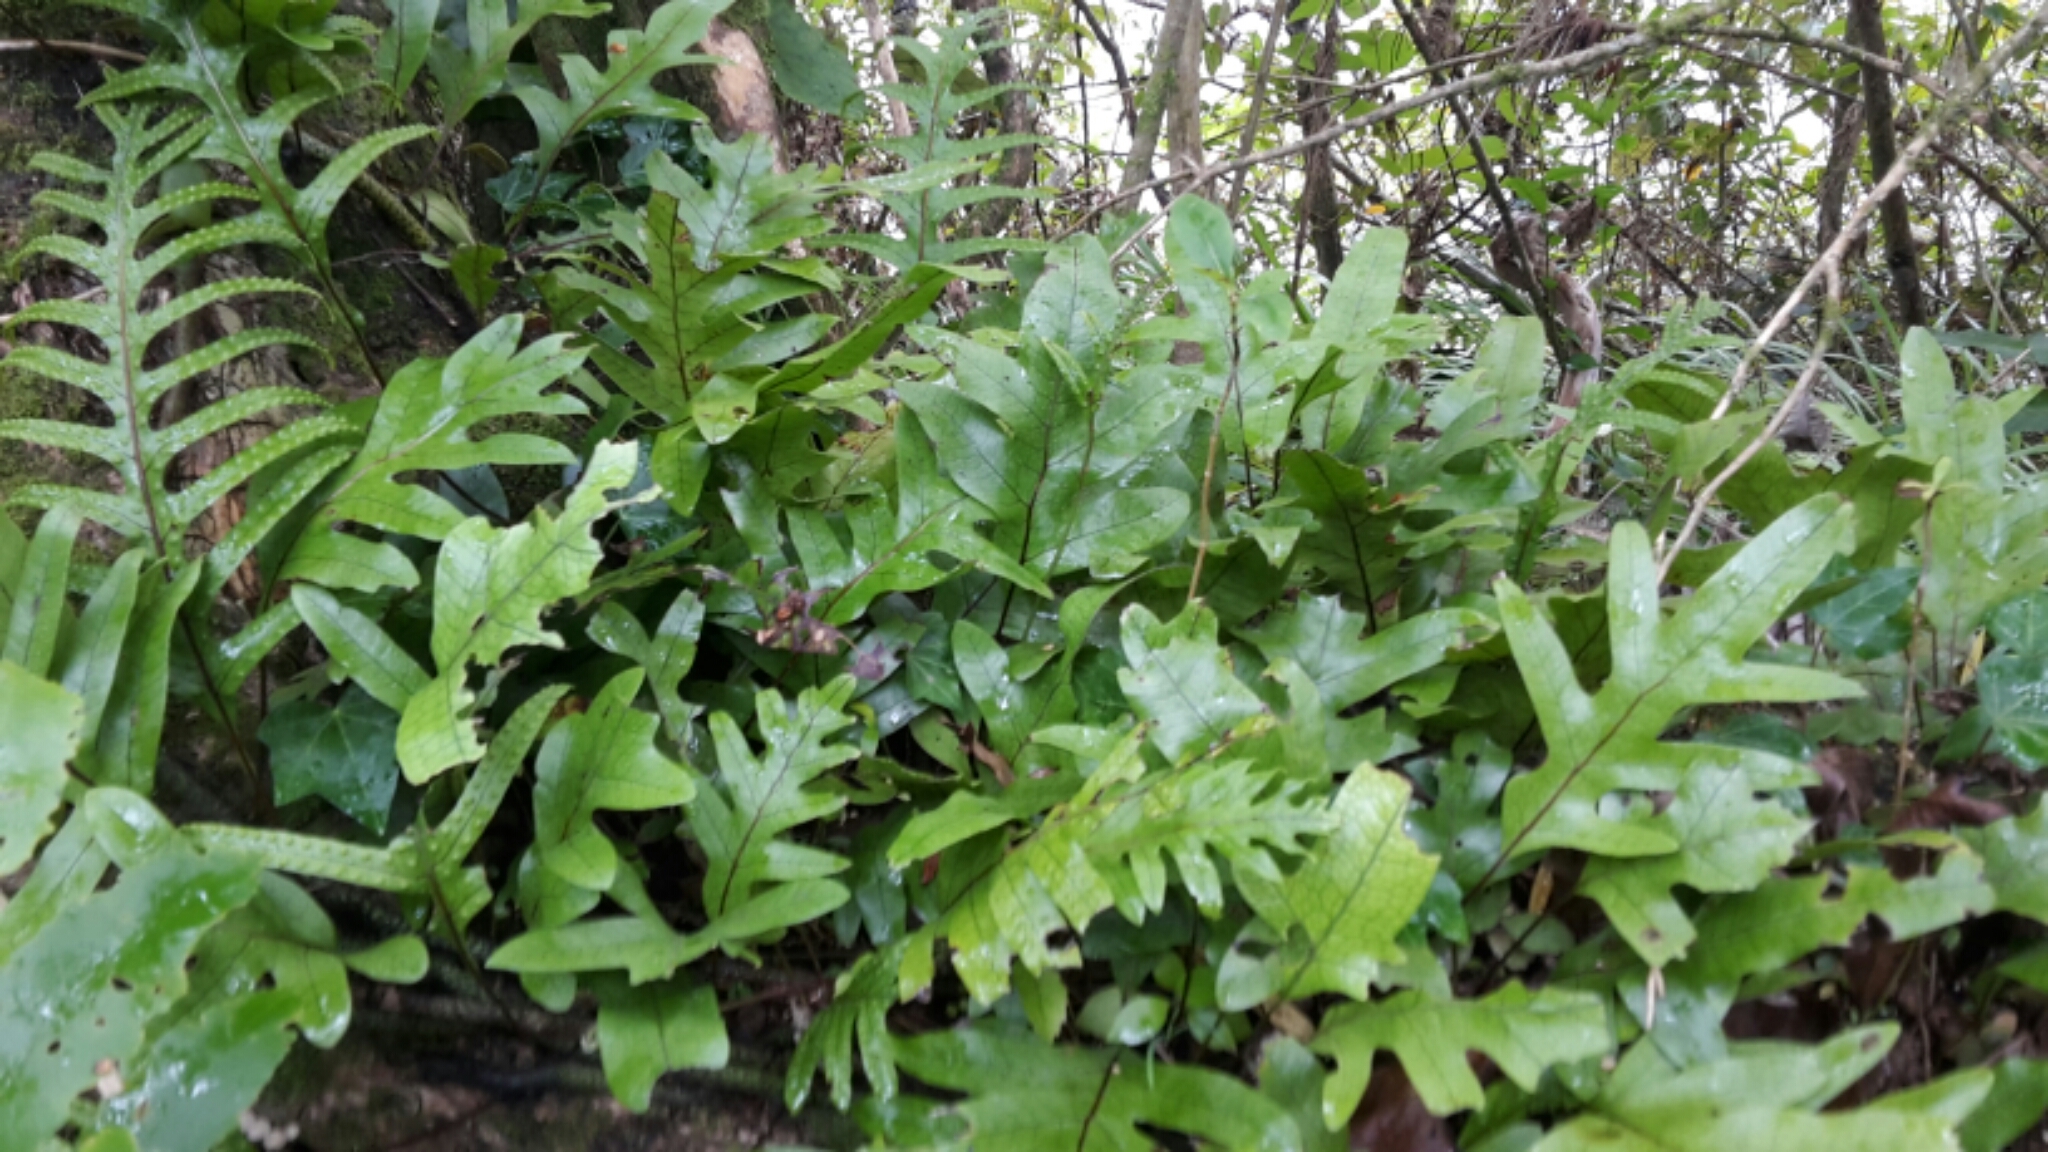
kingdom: Plantae
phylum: Tracheophyta
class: Polypodiopsida
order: Polypodiales
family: Polypodiaceae
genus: Lecanopteris
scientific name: Lecanopteris pustulata
